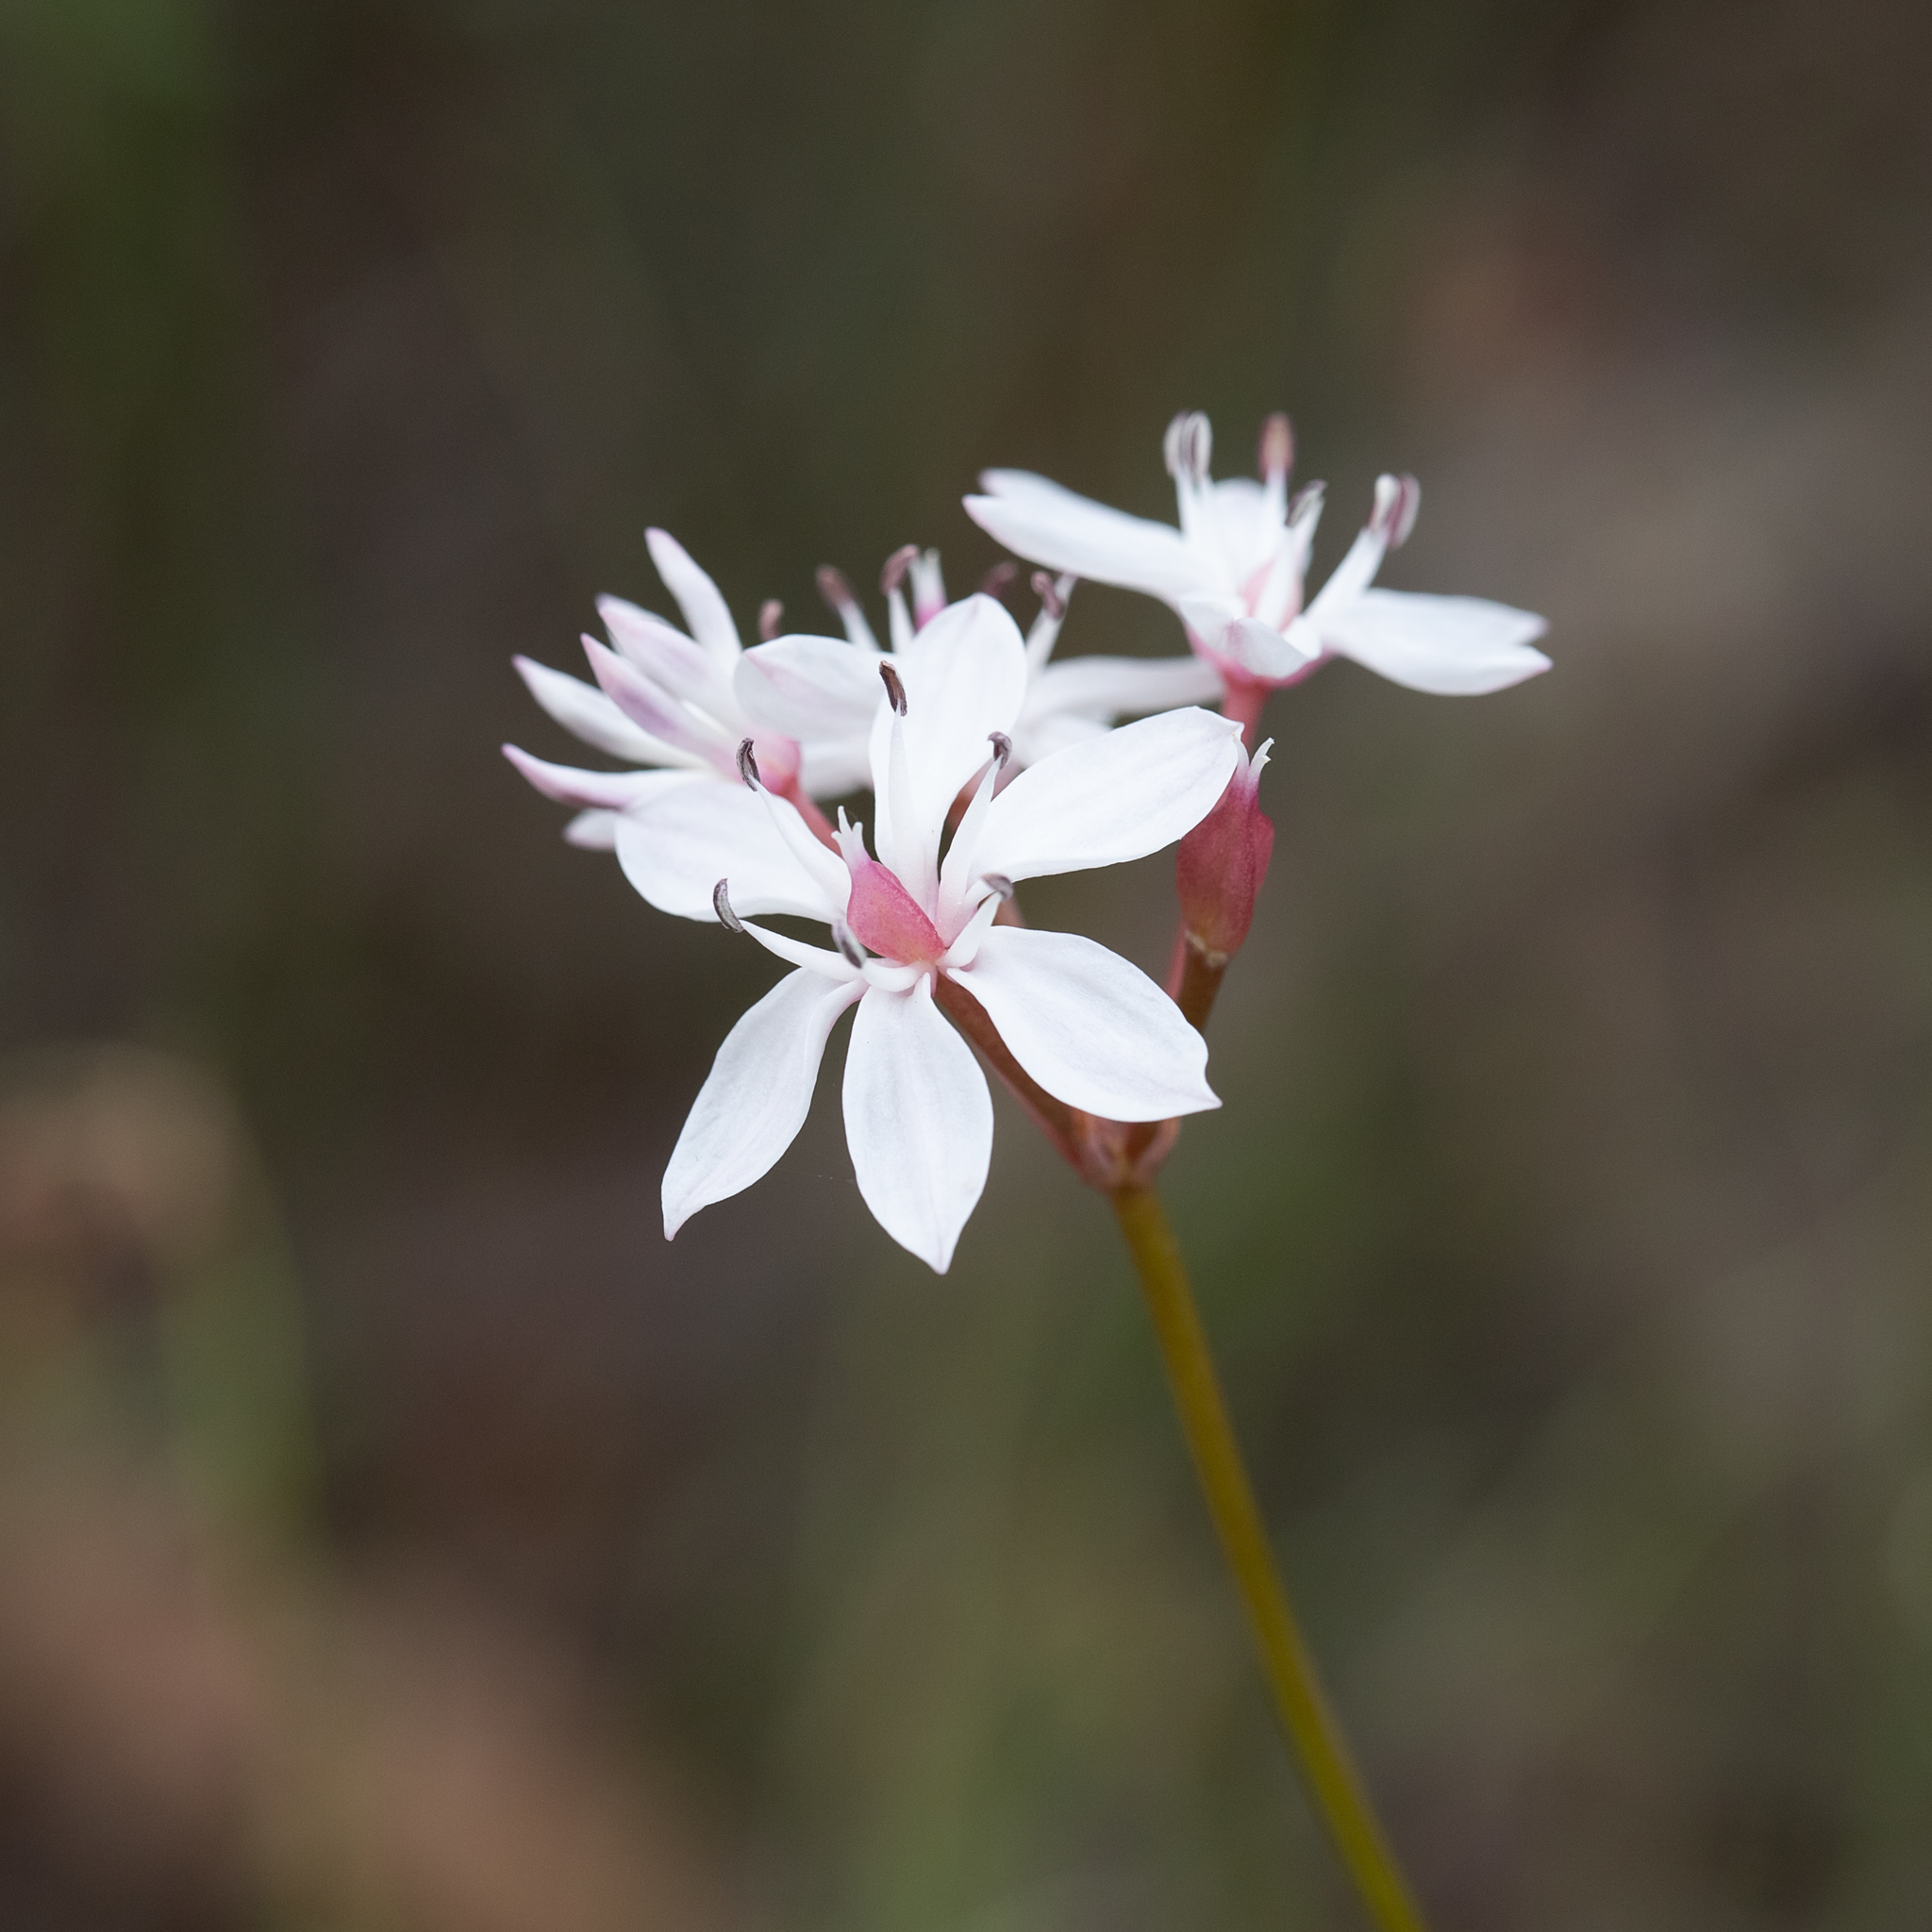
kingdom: Plantae
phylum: Tracheophyta
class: Liliopsida
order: Liliales
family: Colchicaceae
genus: Burchardia
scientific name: Burchardia umbellata
